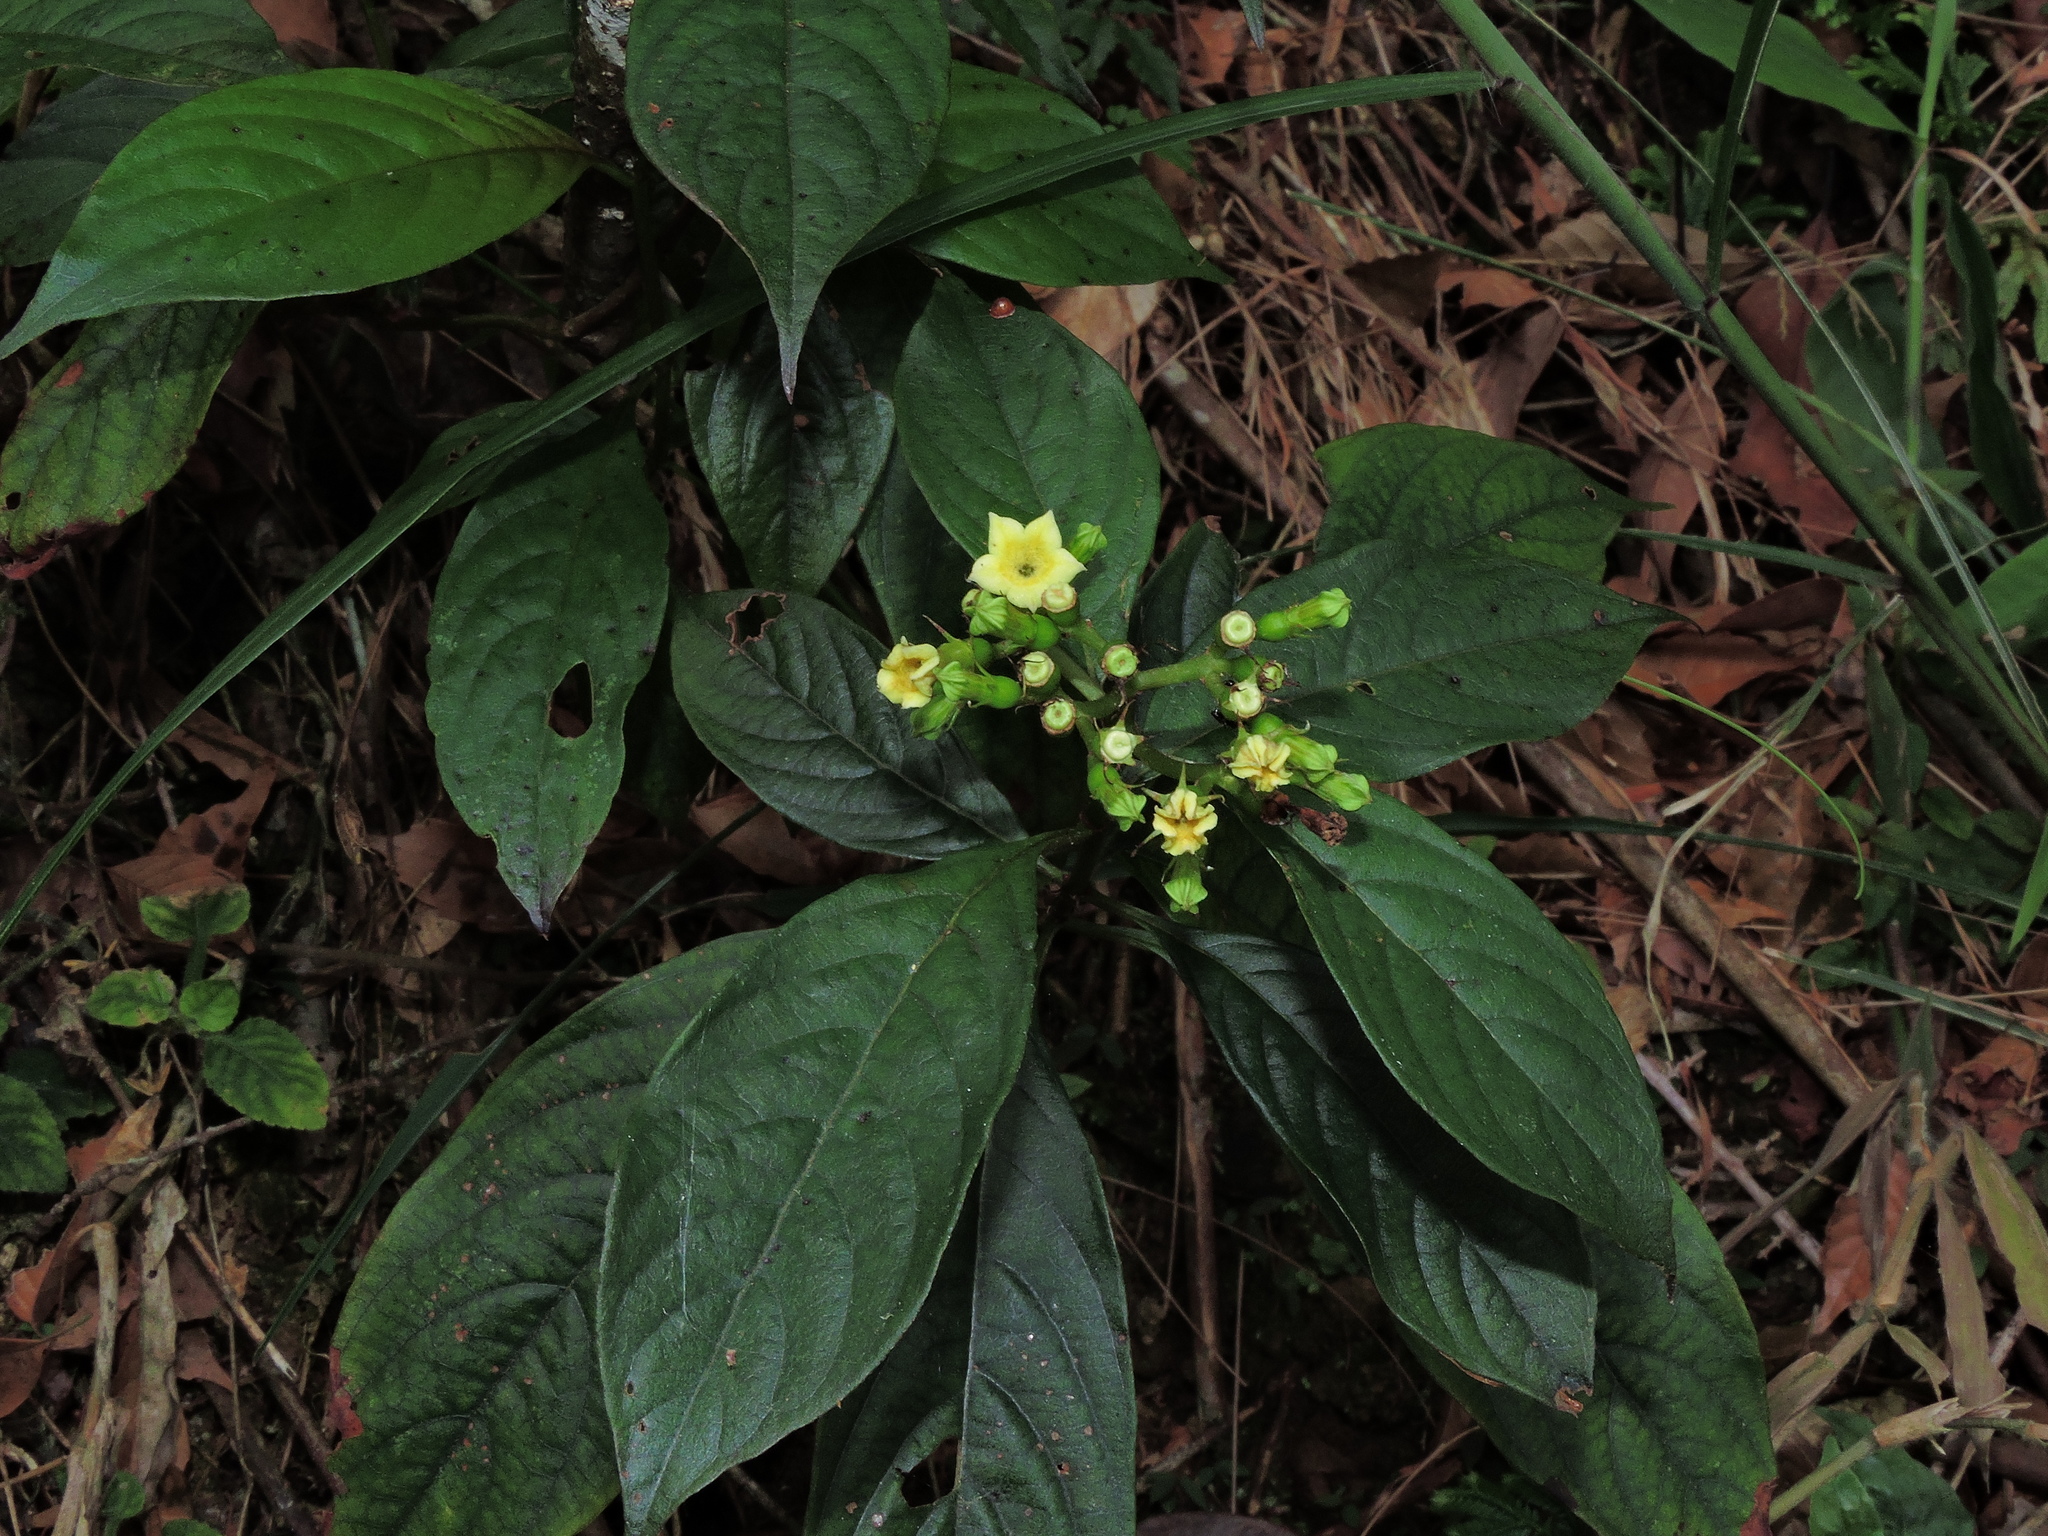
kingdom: Plantae
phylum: Tracheophyta
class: Magnoliopsida
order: Gentianales
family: Rubiaceae
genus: Mussaenda
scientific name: Mussaenda parviflora
